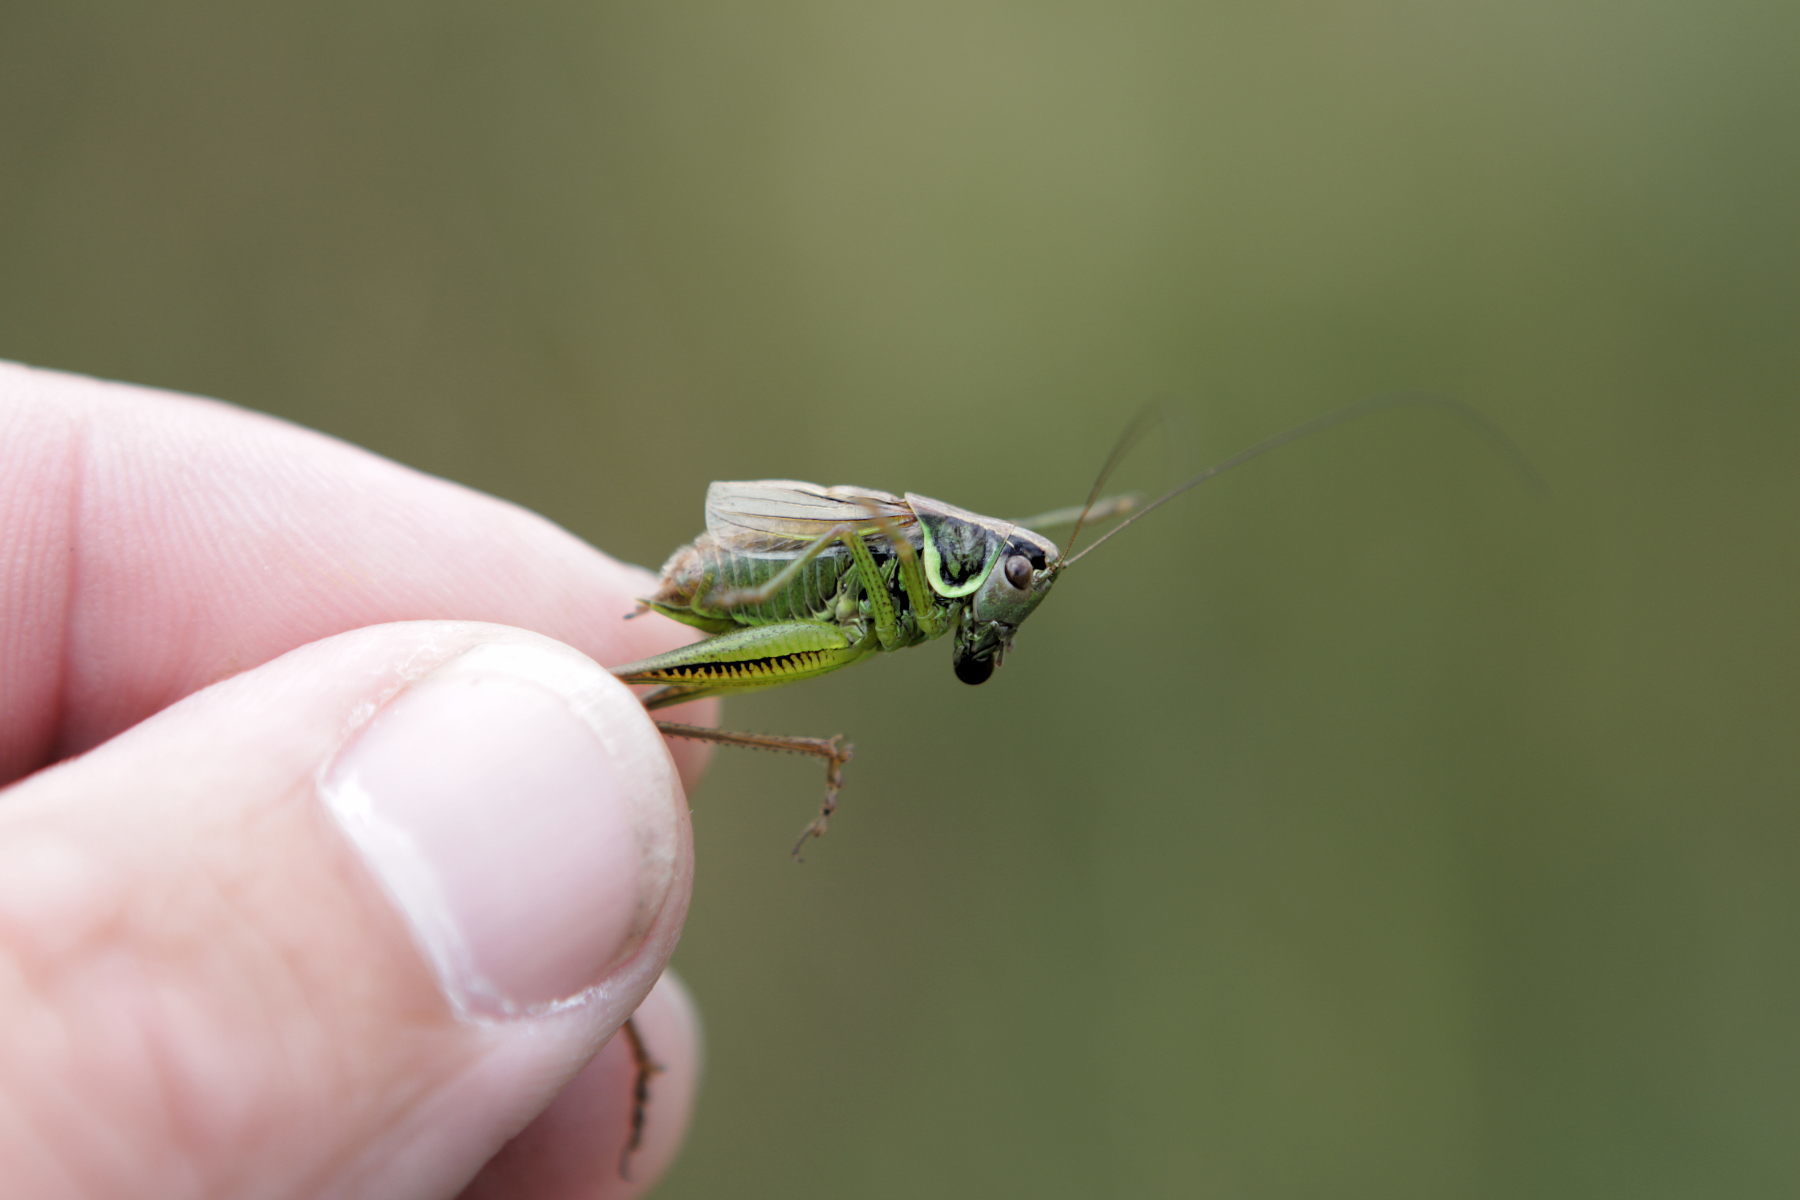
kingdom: Animalia
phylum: Arthropoda
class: Insecta
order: Orthoptera
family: Tettigoniidae
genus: Roeseliana
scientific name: Roeseliana roeselii
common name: Roesel's bush cricket
